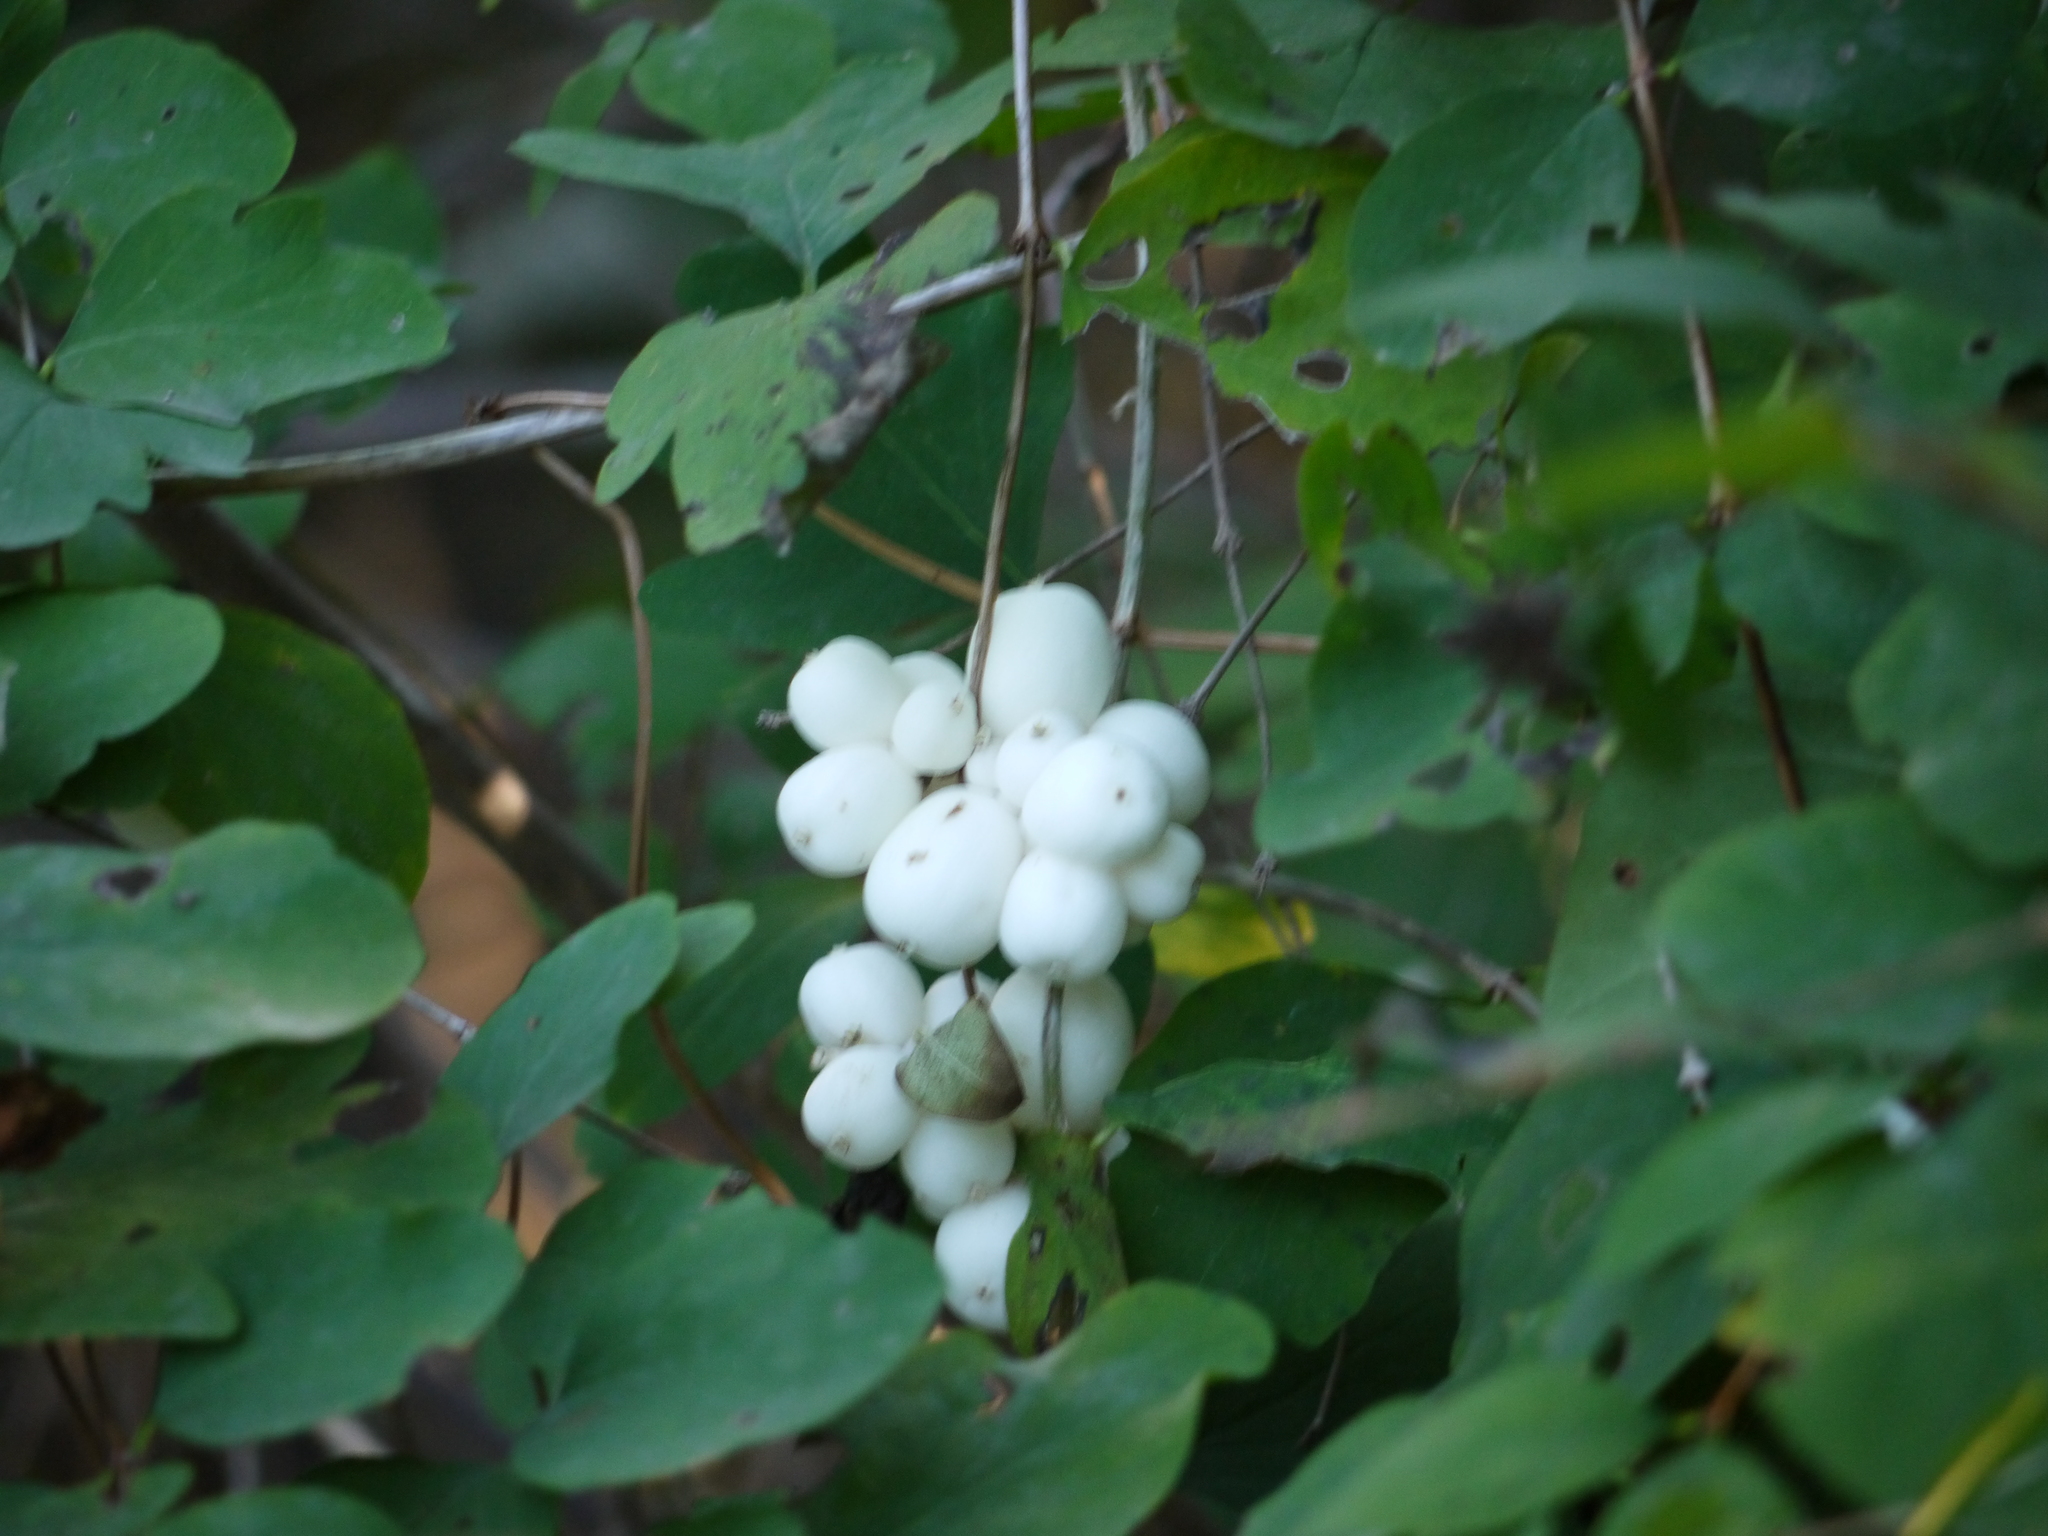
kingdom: Plantae
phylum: Tracheophyta
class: Magnoliopsida
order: Dipsacales
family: Caprifoliaceae
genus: Symphoricarpos
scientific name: Symphoricarpos albus
